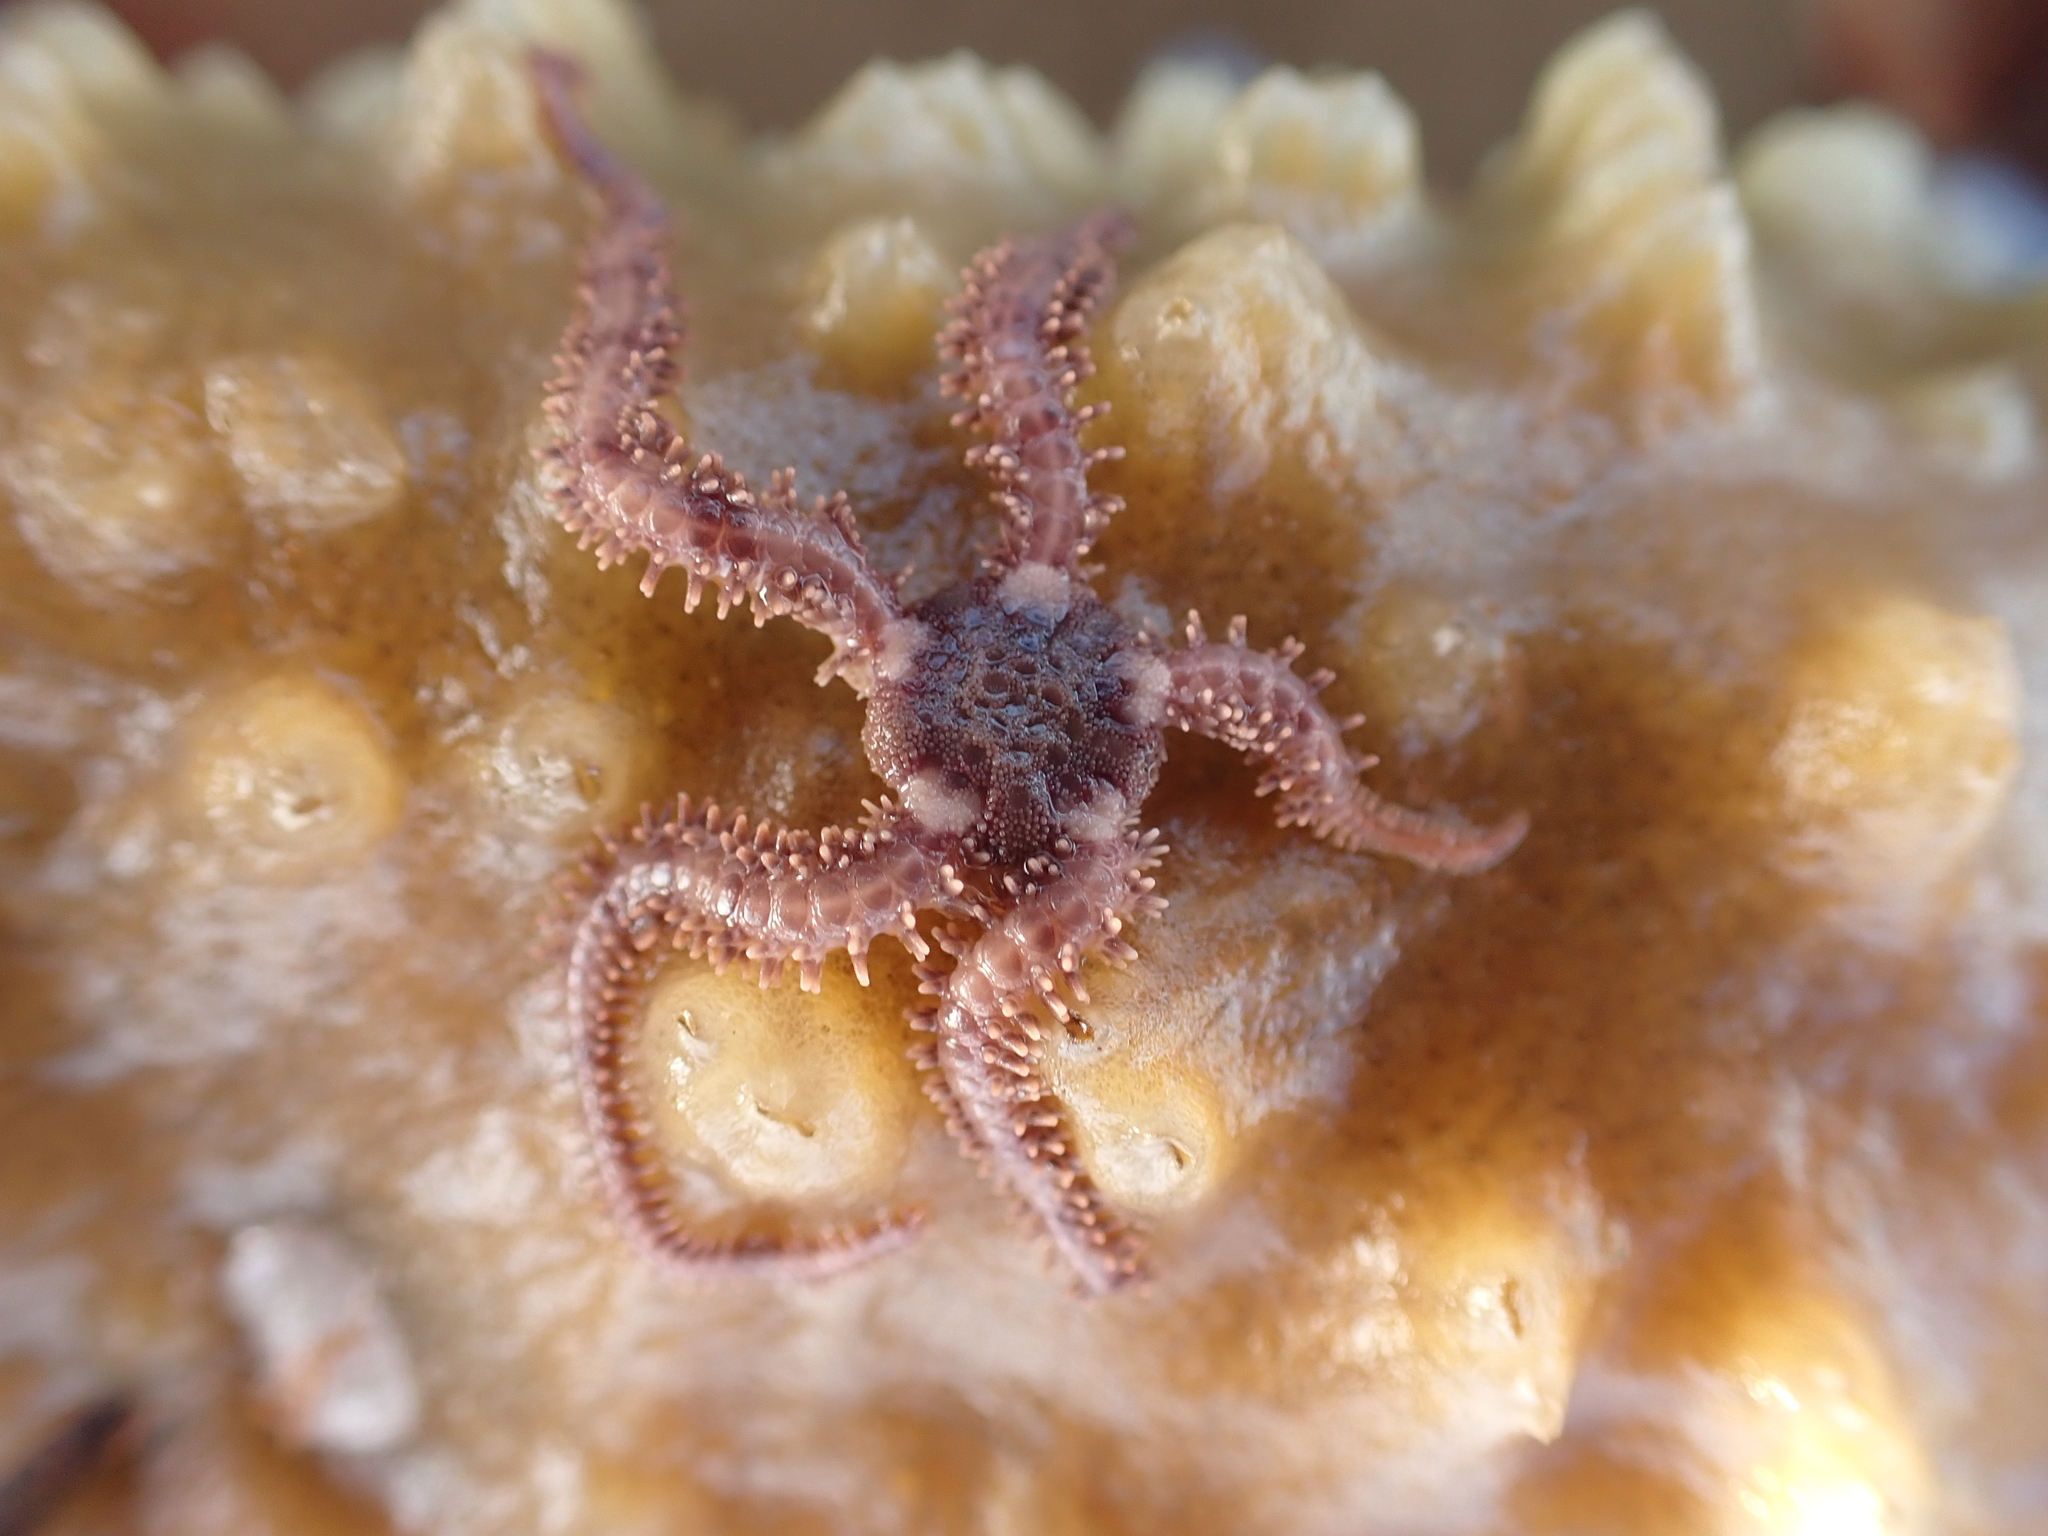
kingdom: Animalia
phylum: Echinodermata
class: Ophiuroidea
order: Amphilepidida
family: Ophiopholidae
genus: Ophiopholis
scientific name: Ophiopholis aculeata
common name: Crevice brittlestar
